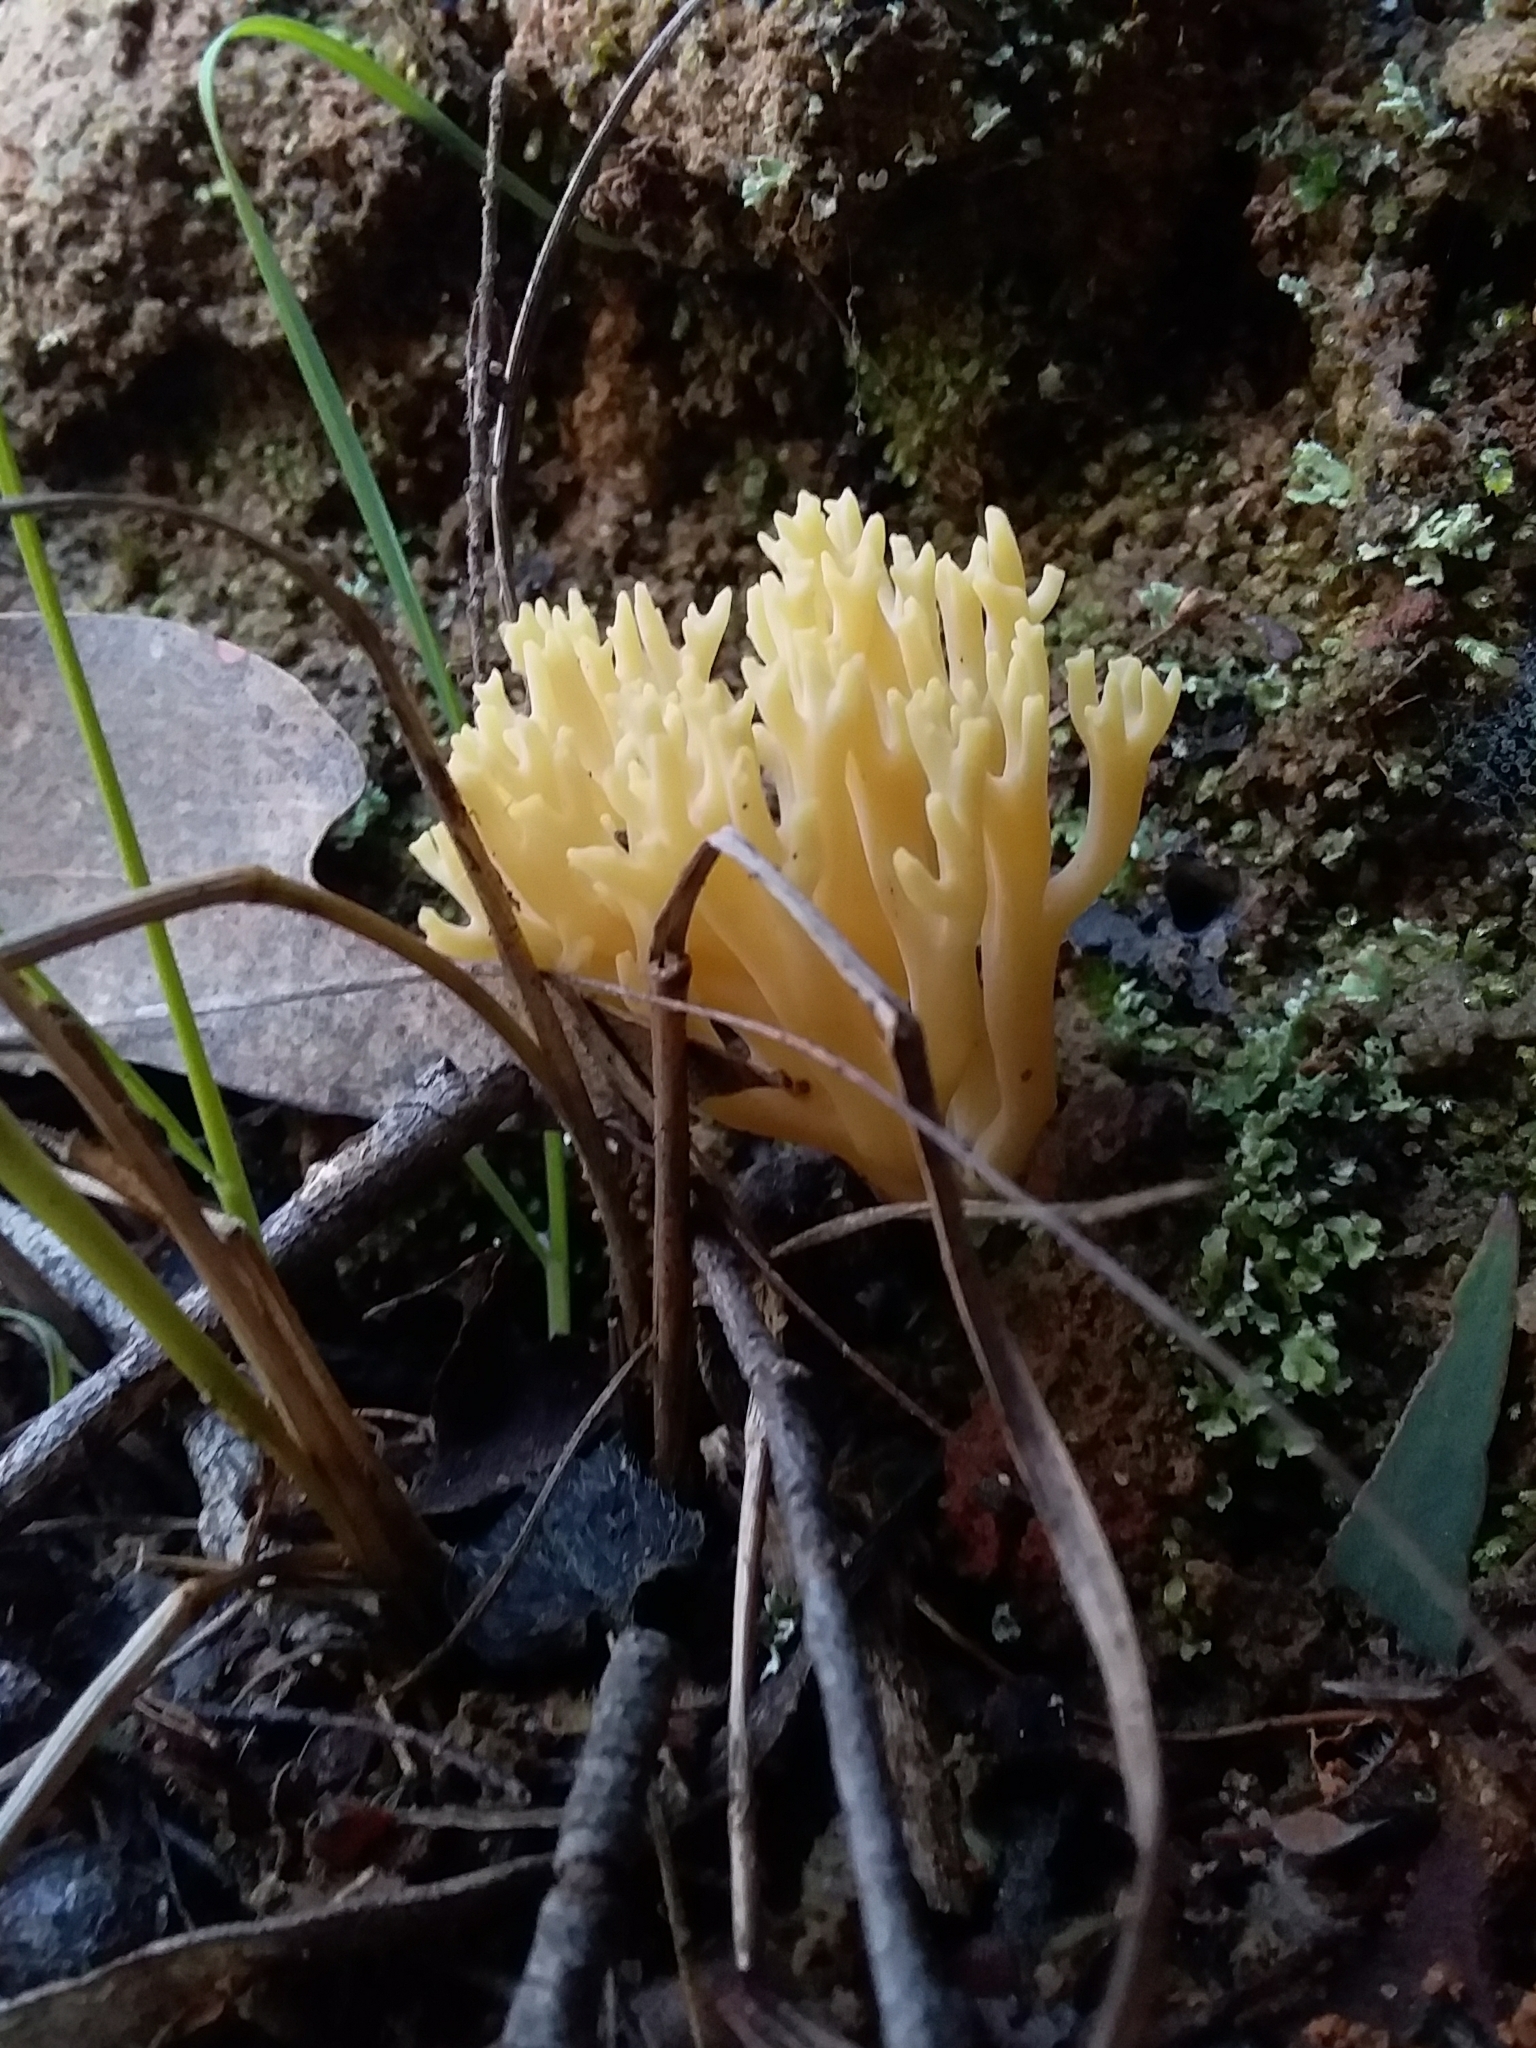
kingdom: Fungi
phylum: Basidiomycota
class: Agaricomycetes
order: Gomphales
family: Gomphaceae
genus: Ramaria
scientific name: Ramaria lorithamnus
